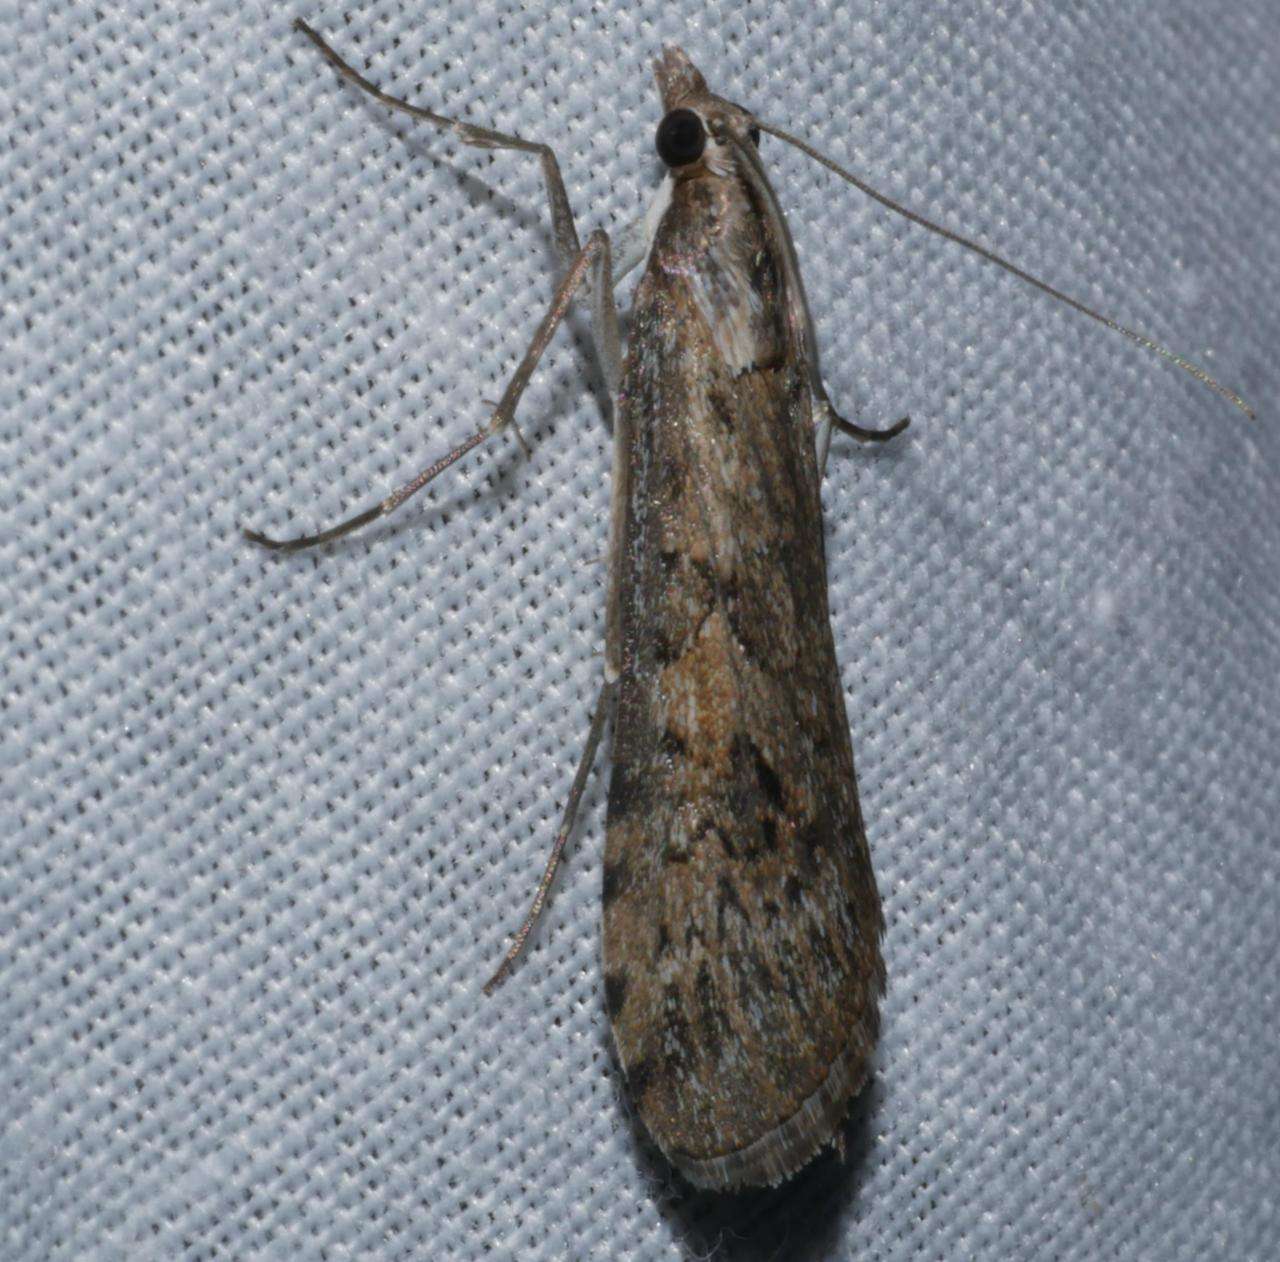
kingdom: Animalia
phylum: Arthropoda
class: Insecta
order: Lepidoptera
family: Crambidae
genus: Nomophila
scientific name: Nomophila corticalis
